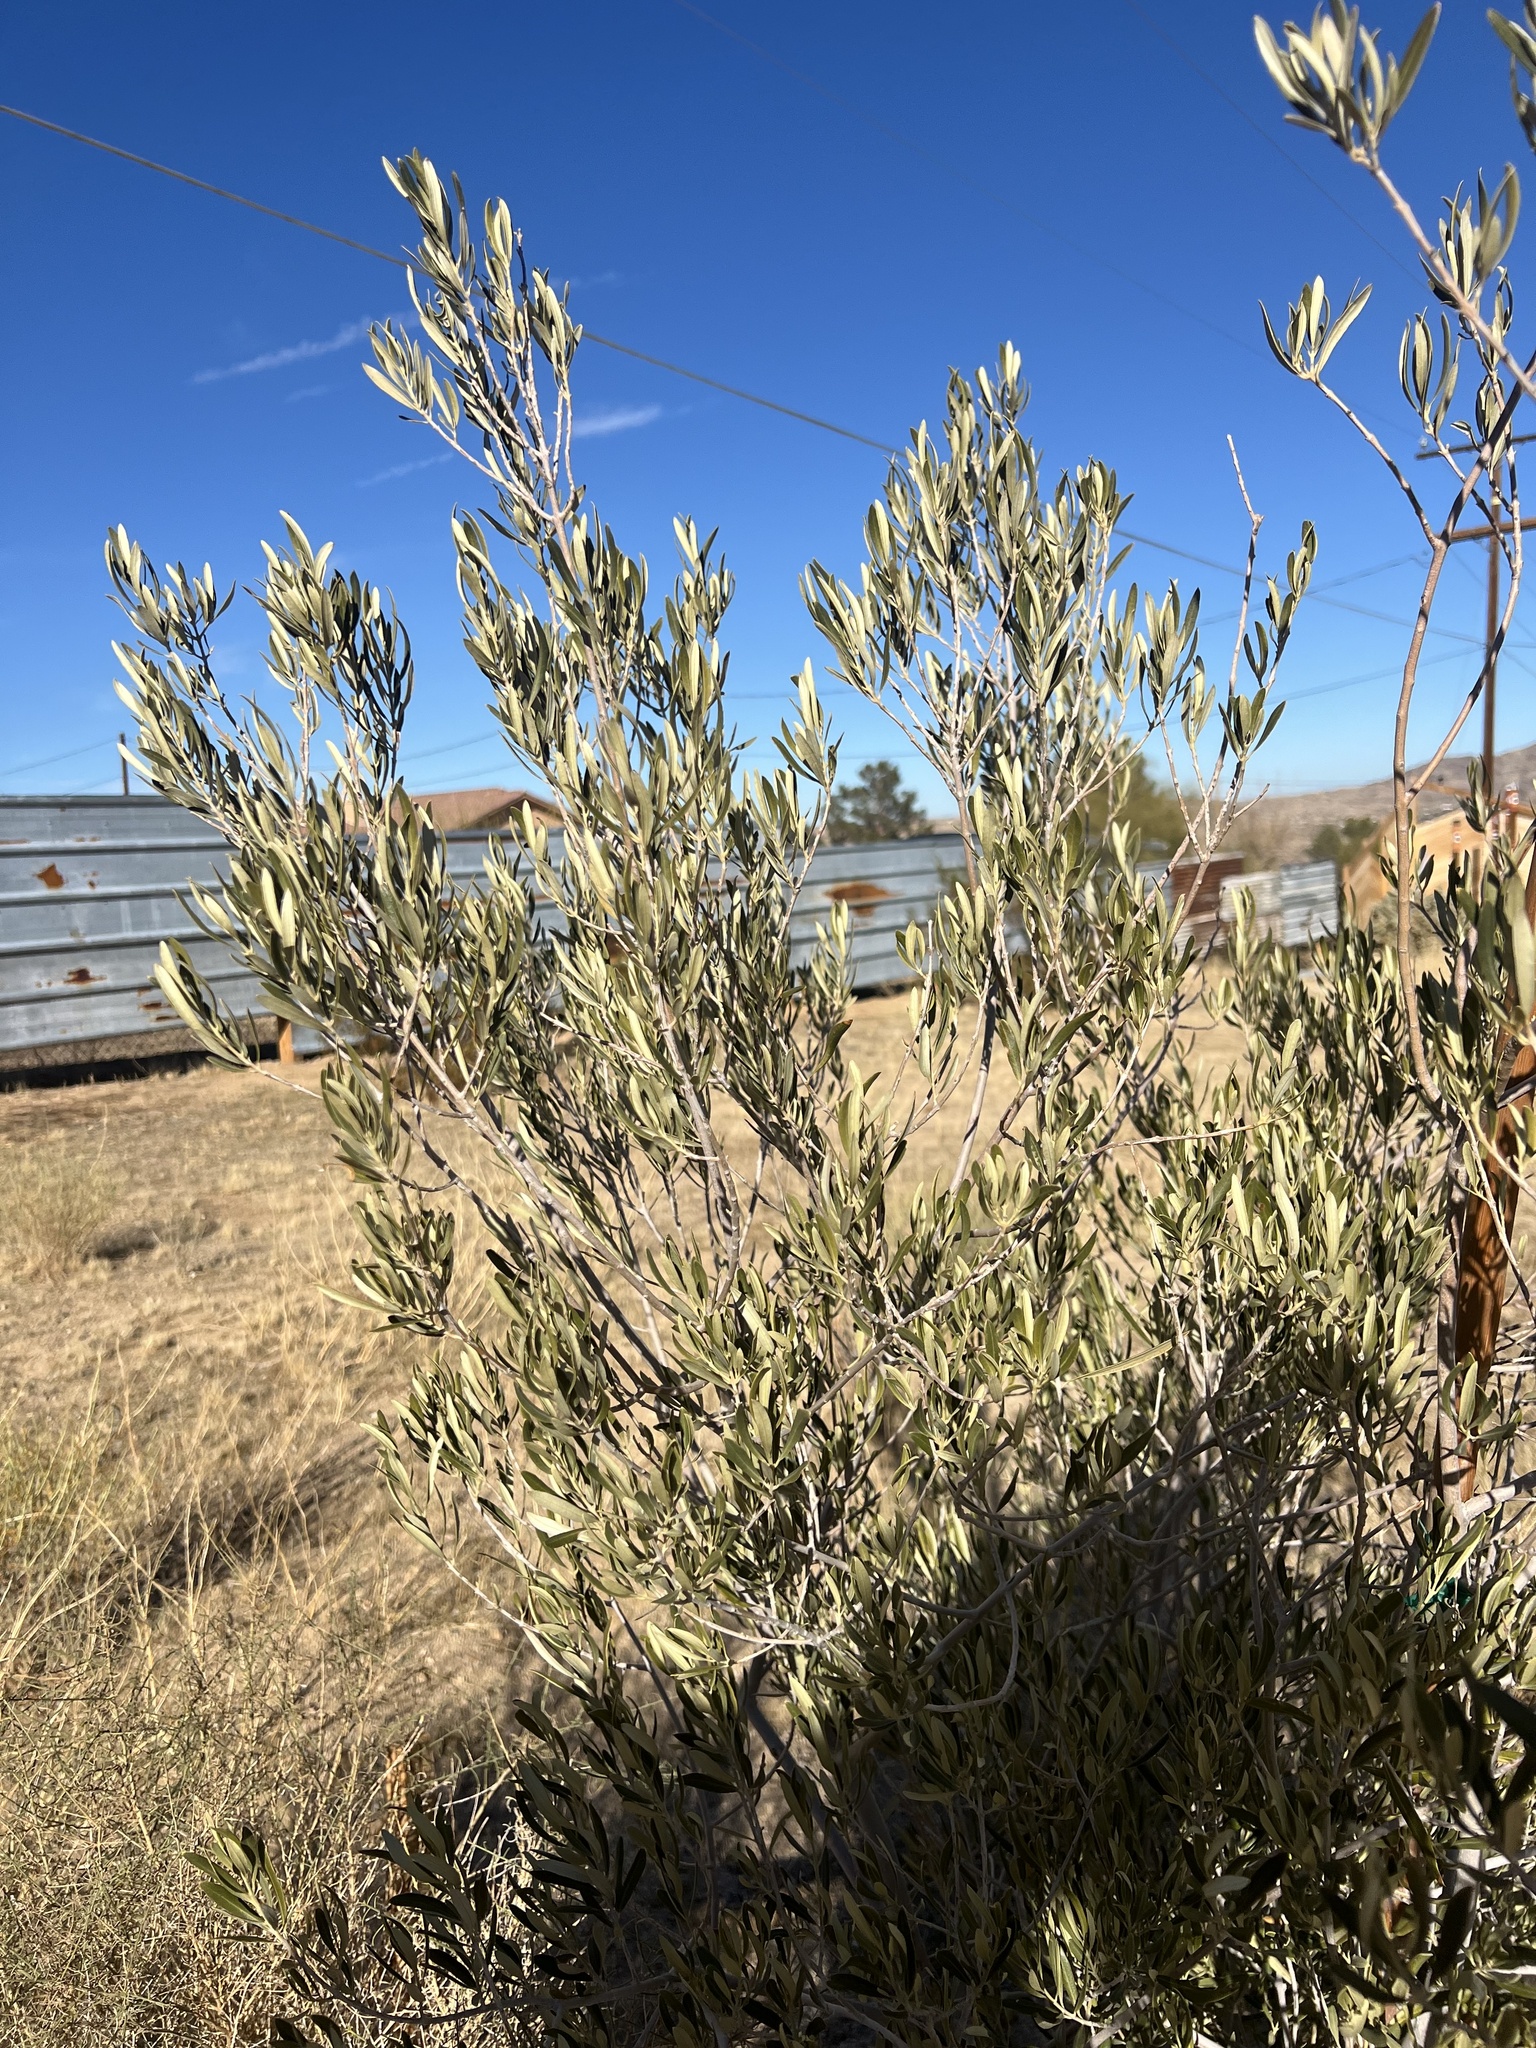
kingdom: Plantae
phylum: Tracheophyta
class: Magnoliopsida
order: Caryophyllales
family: Simmondsiaceae
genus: Simmondsia
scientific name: Simmondsia chinensis
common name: Jojoba
